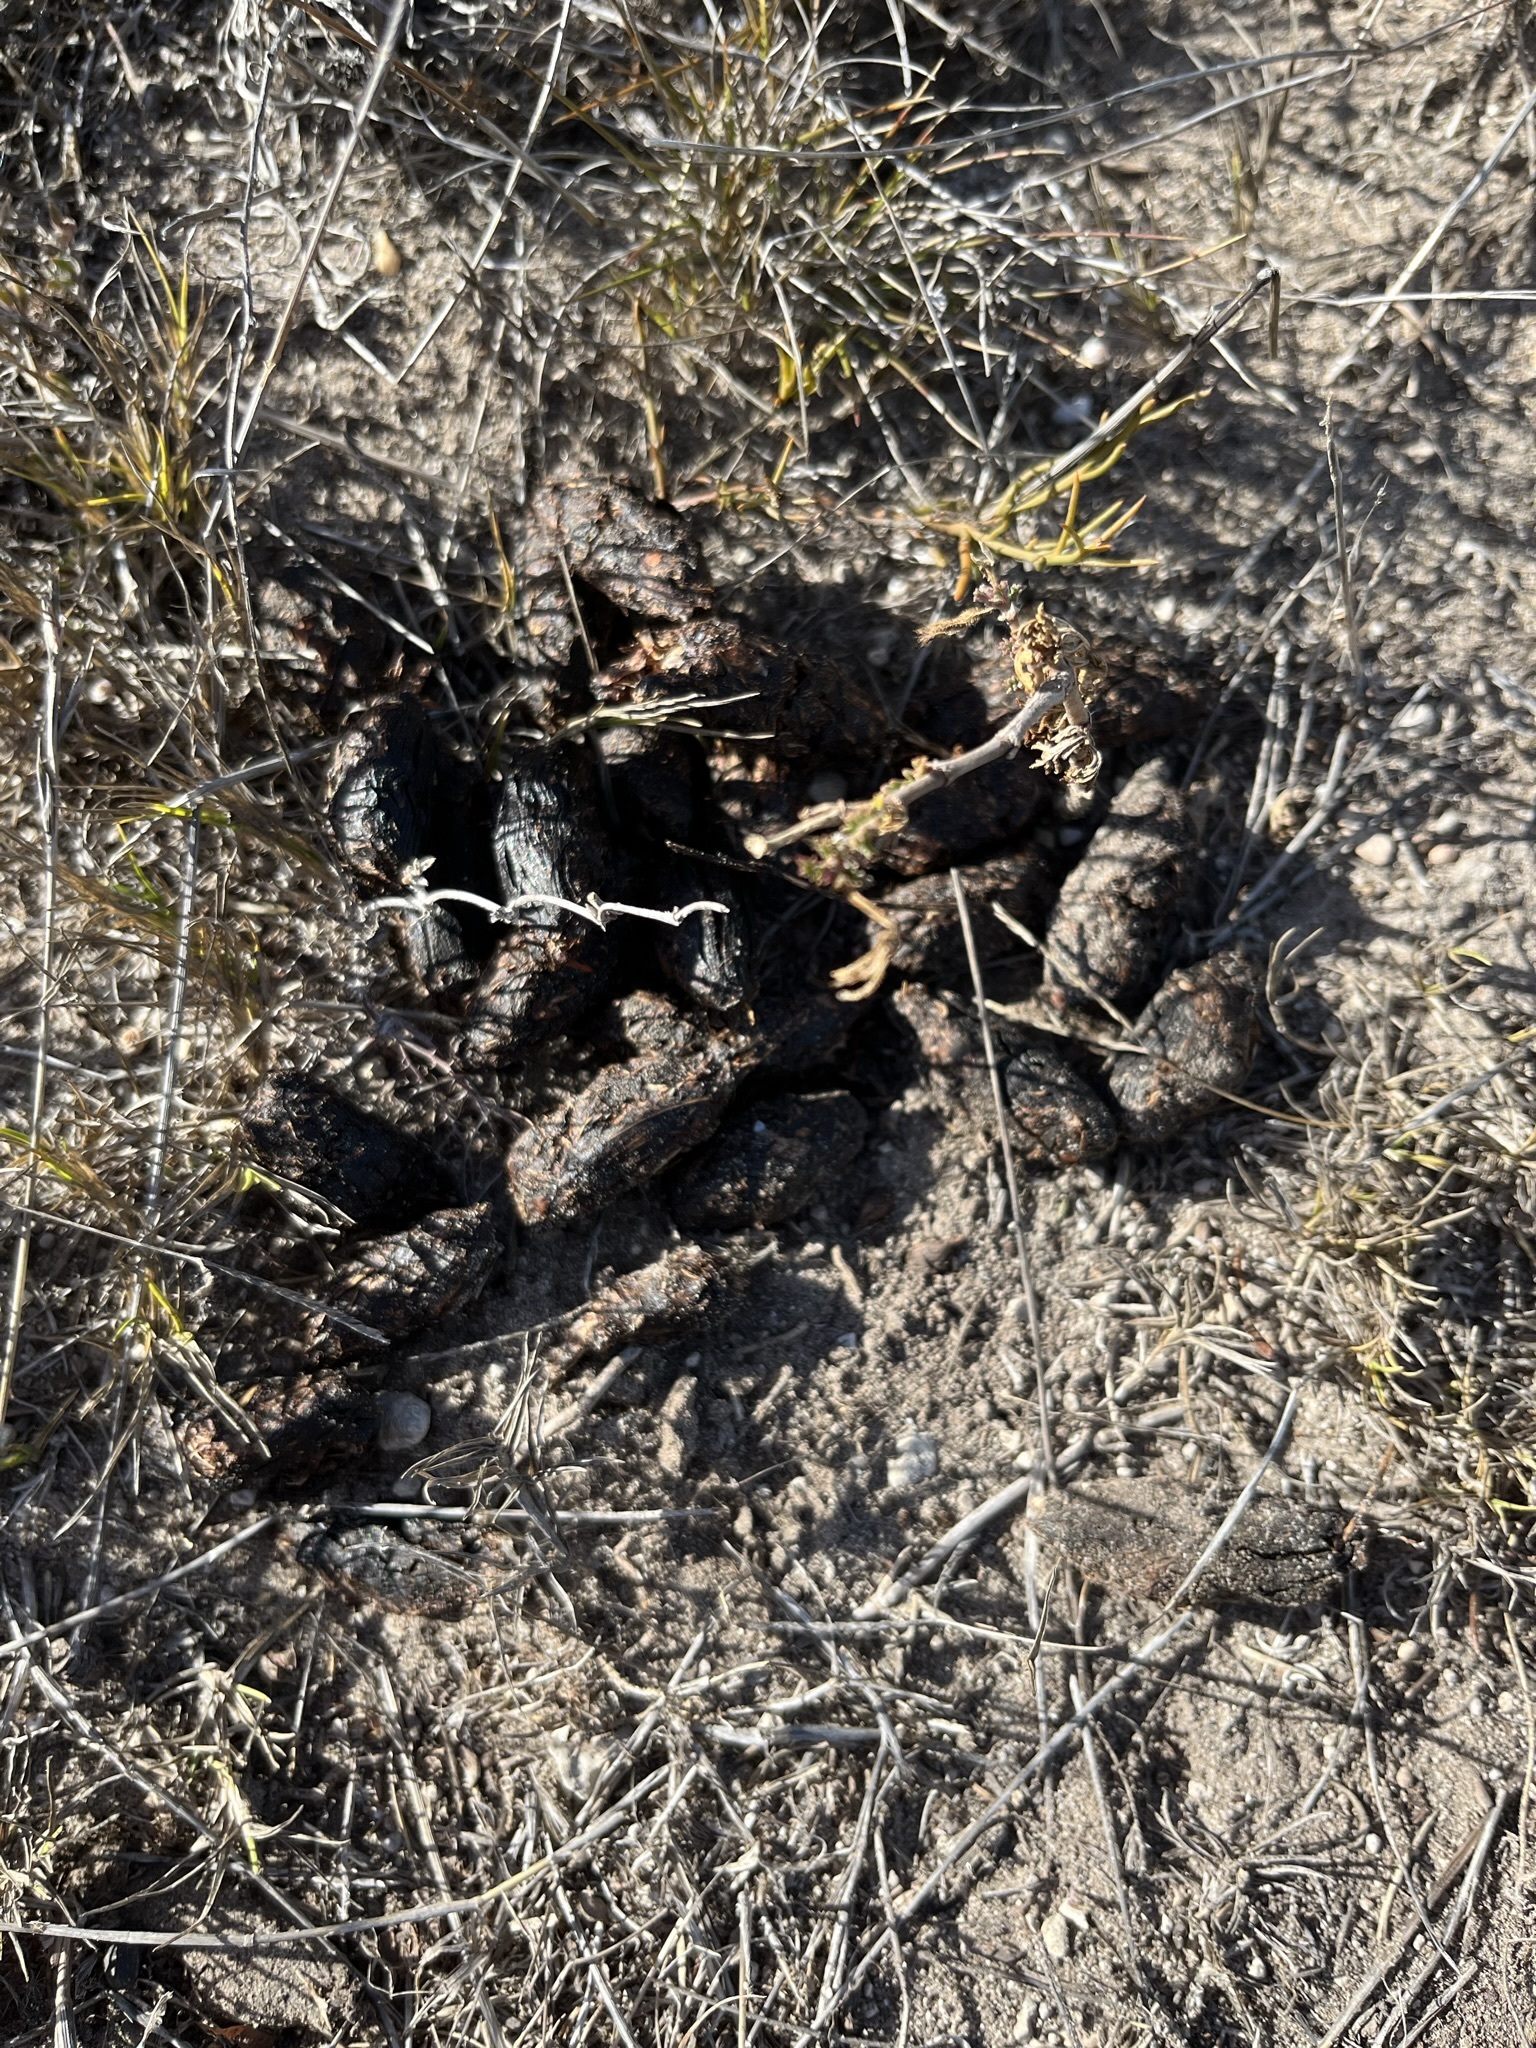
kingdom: Animalia
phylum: Chordata
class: Mammalia
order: Rodentia
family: Hystricidae
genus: Hystrix
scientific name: Hystrix africaeaustralis
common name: Cape porcupine
